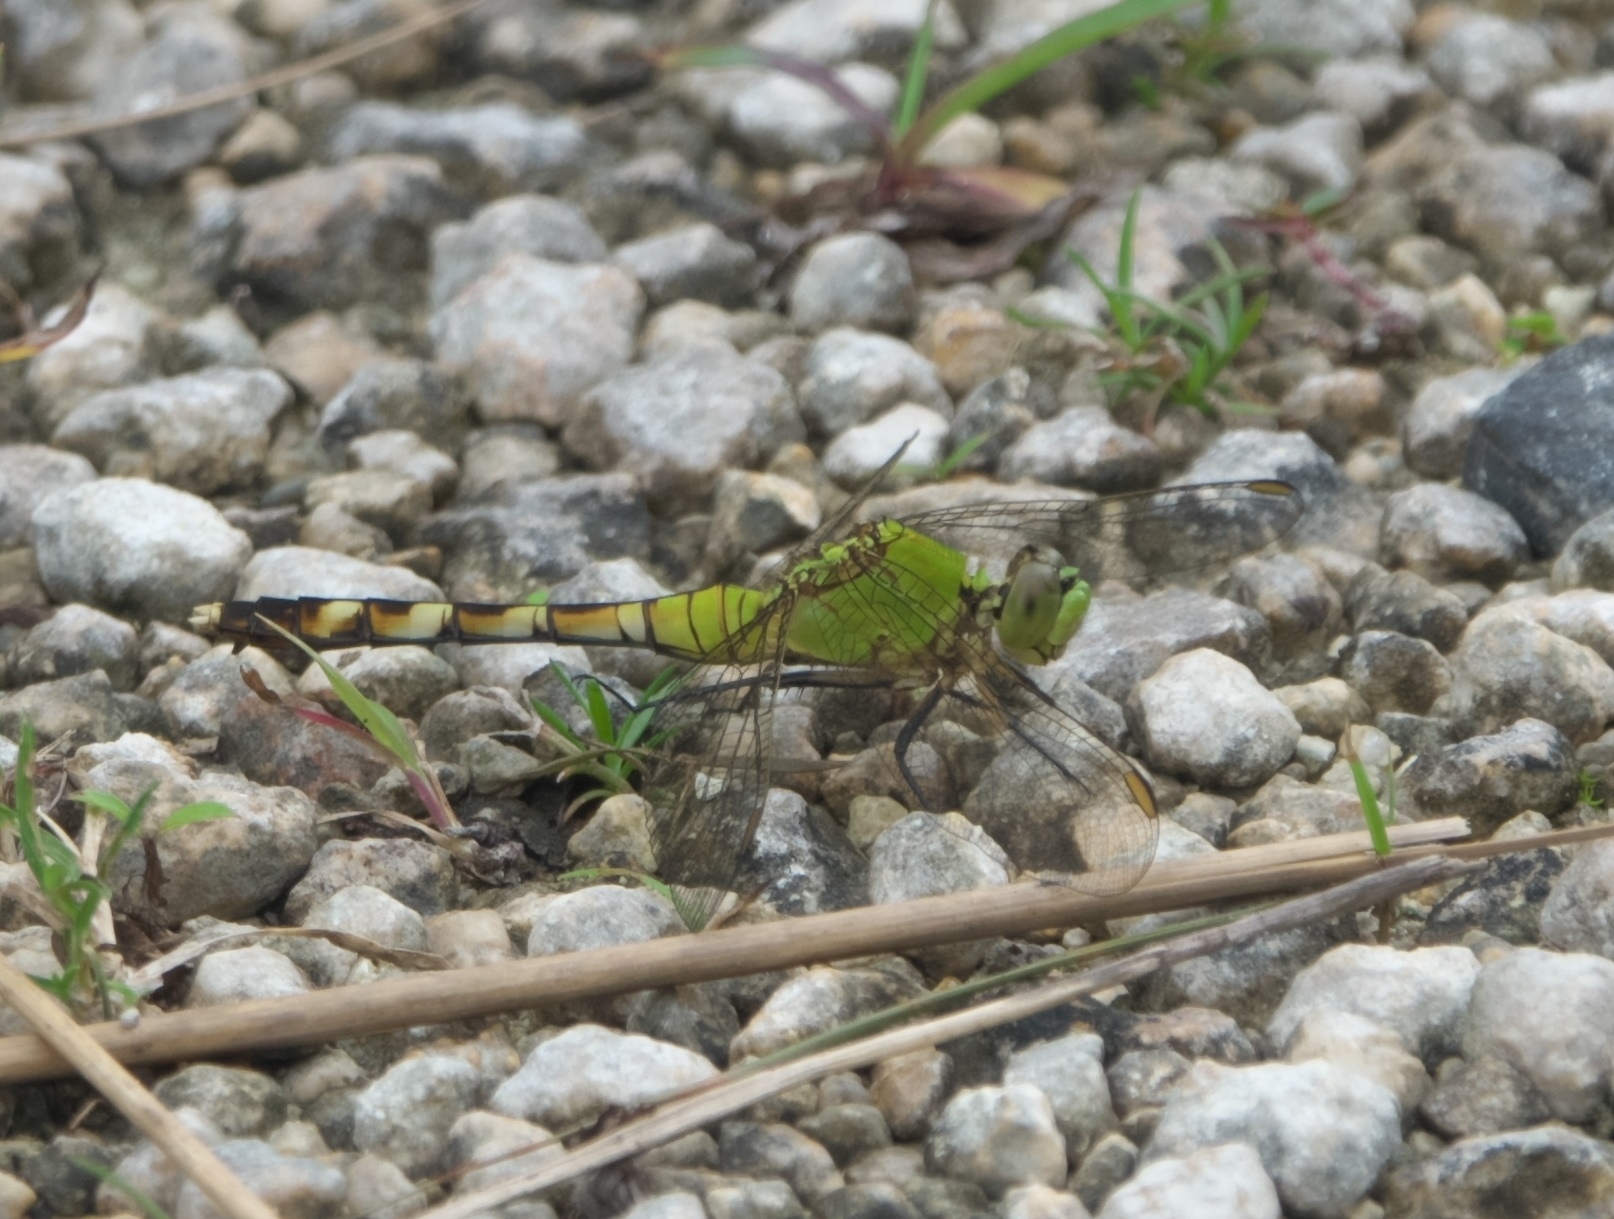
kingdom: Animalia
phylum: Arthropoda
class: Insecta
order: Odonata
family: Libellulidae
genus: Erythemis
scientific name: Erythemis simplicicollis
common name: Eastern pondhawk
